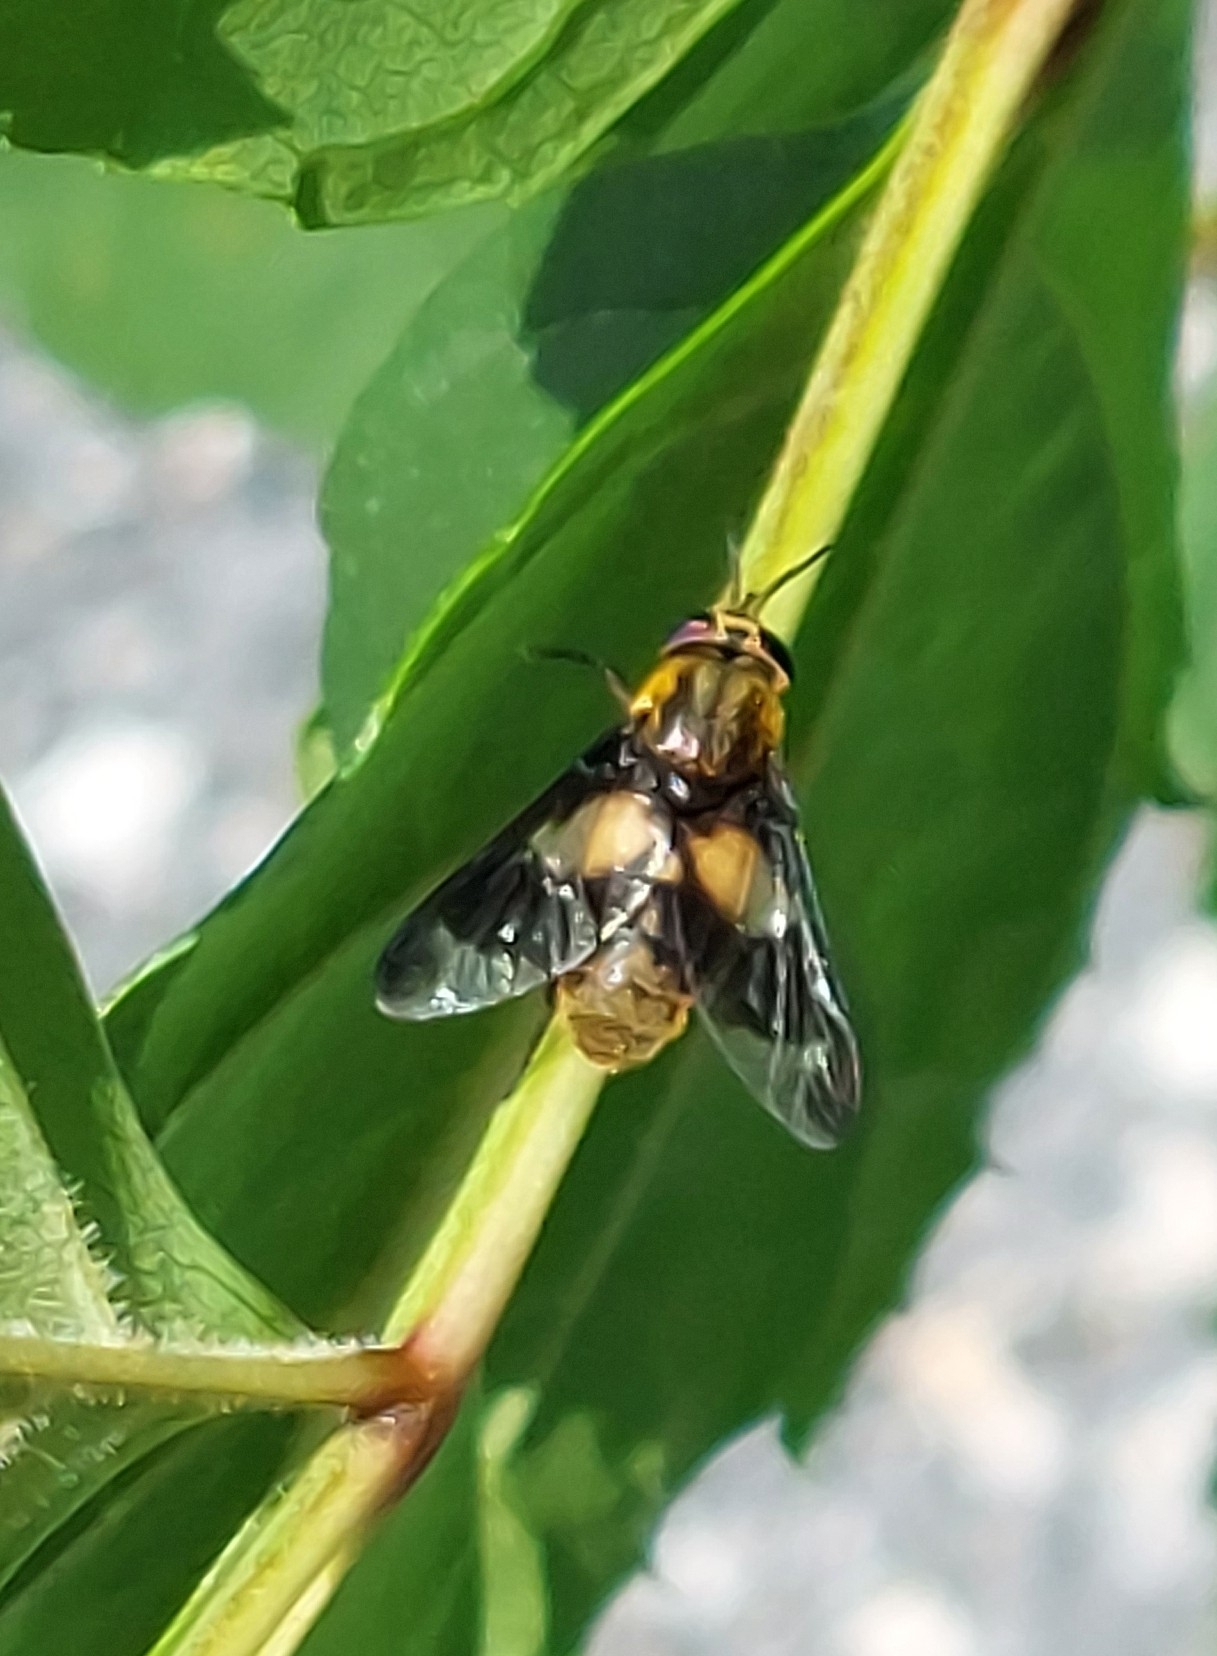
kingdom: Animalia
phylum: Arthropoda
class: Insecta
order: Diptera
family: Tabanidae
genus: Chrysops
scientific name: Chrysops caecutiens
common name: Splayed deerfly
